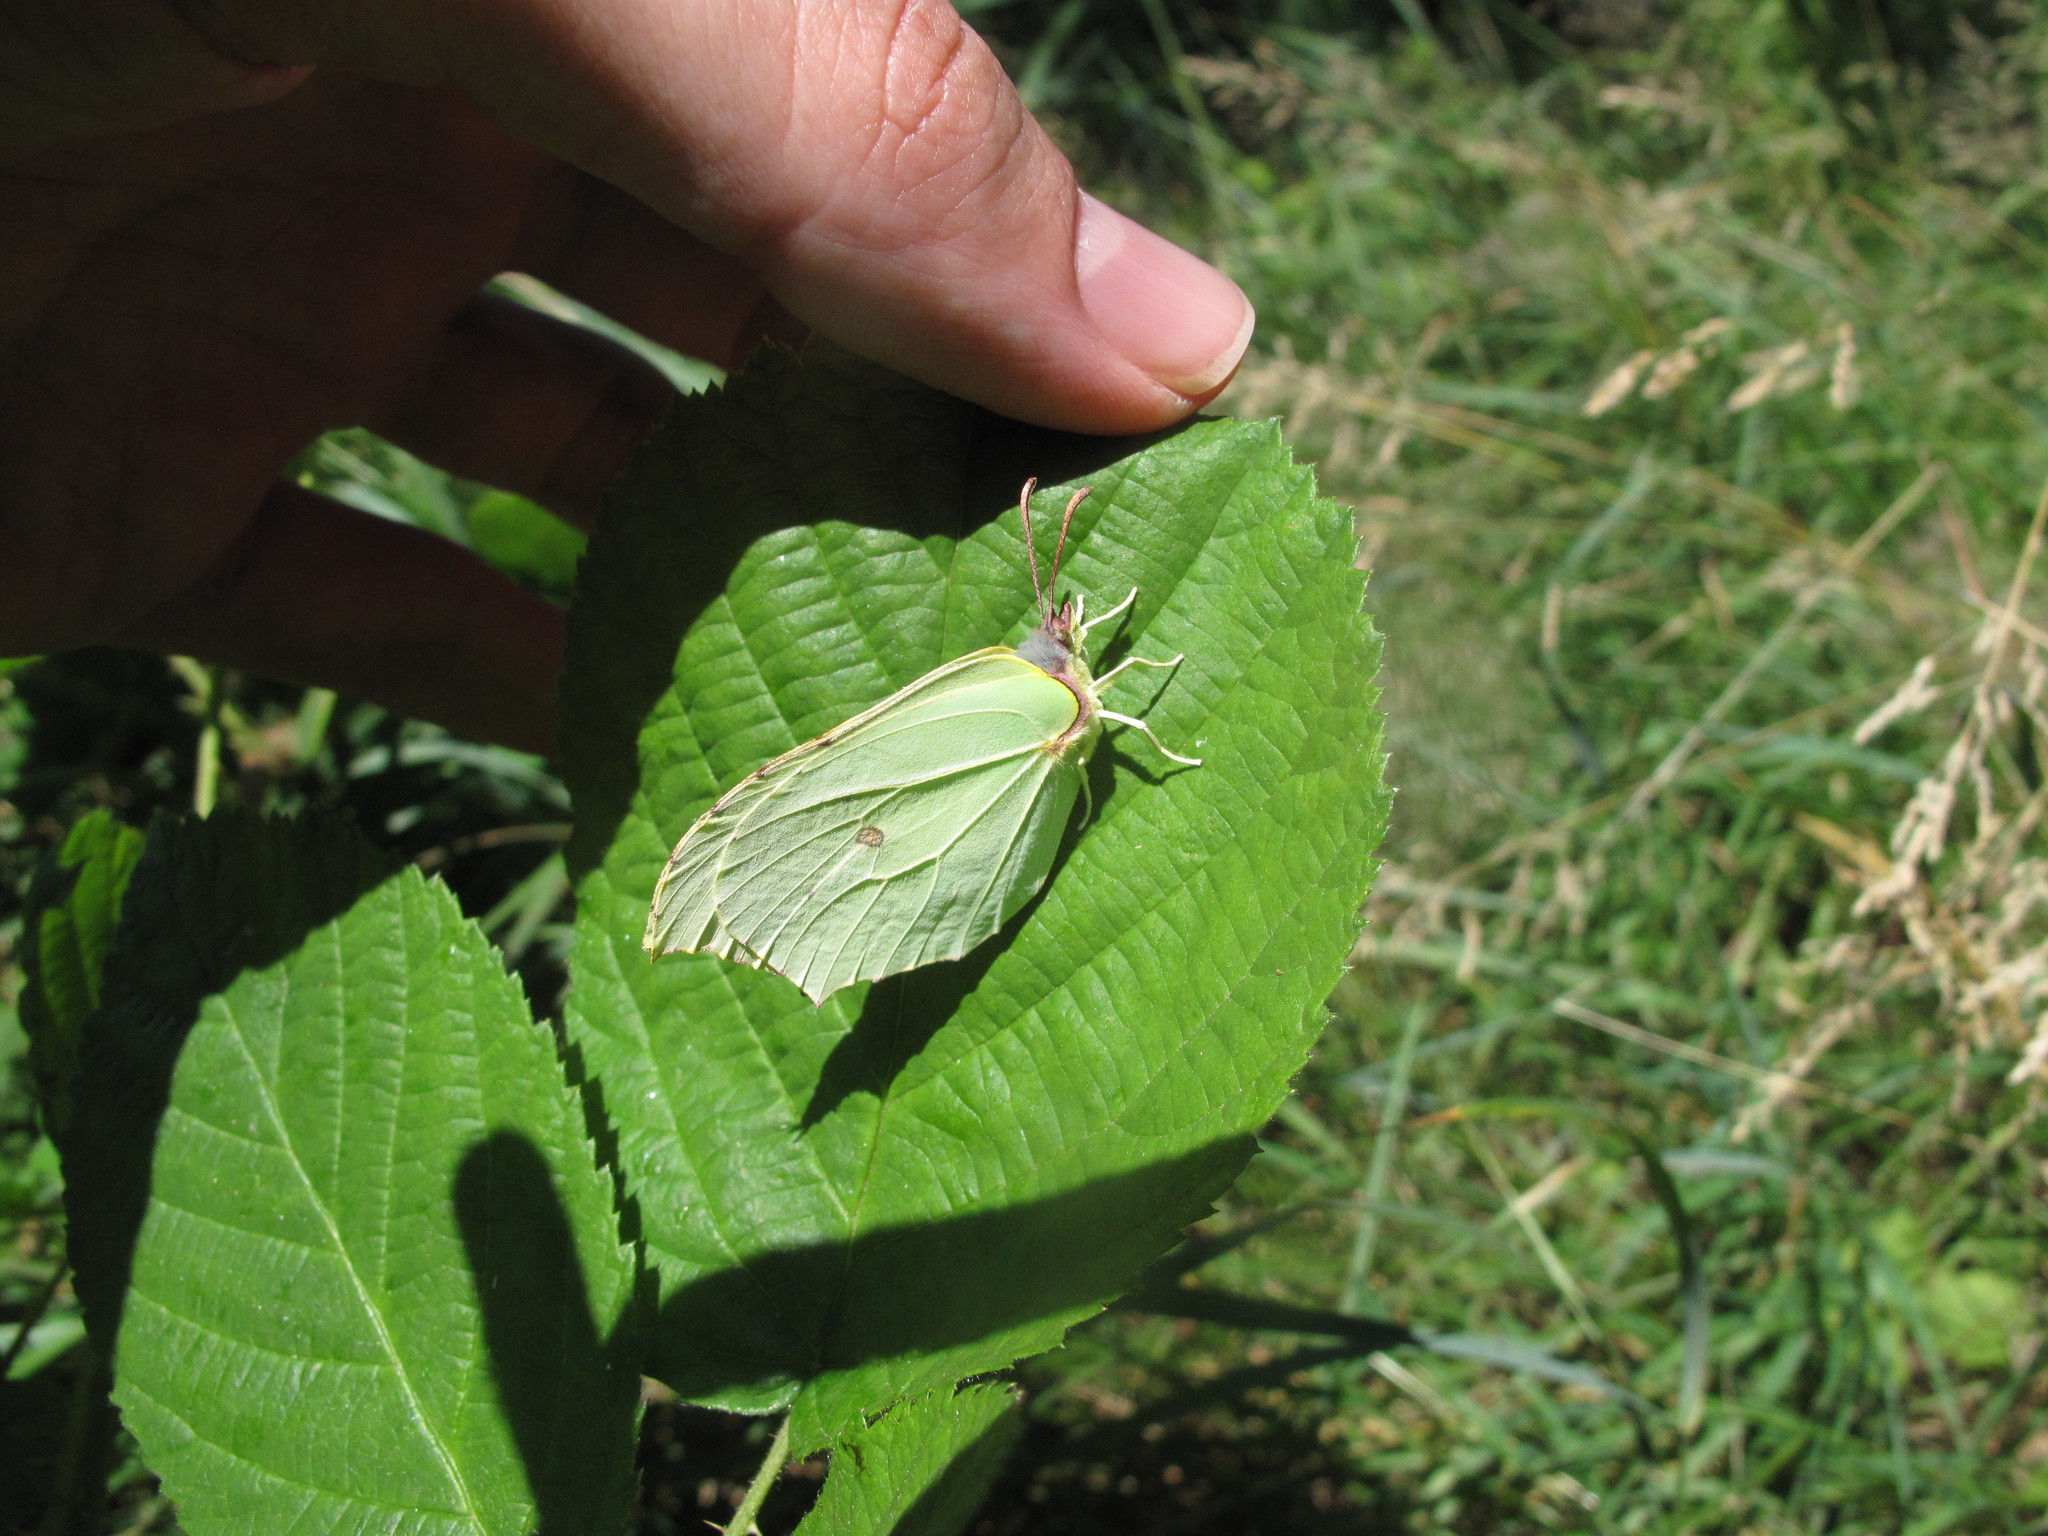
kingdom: Animalia
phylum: Arthropoda
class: Insecta
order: Lepidoptera
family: Pieridae
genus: Gonepteryx
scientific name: Gonepteryx rhamni
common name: Brimstone
